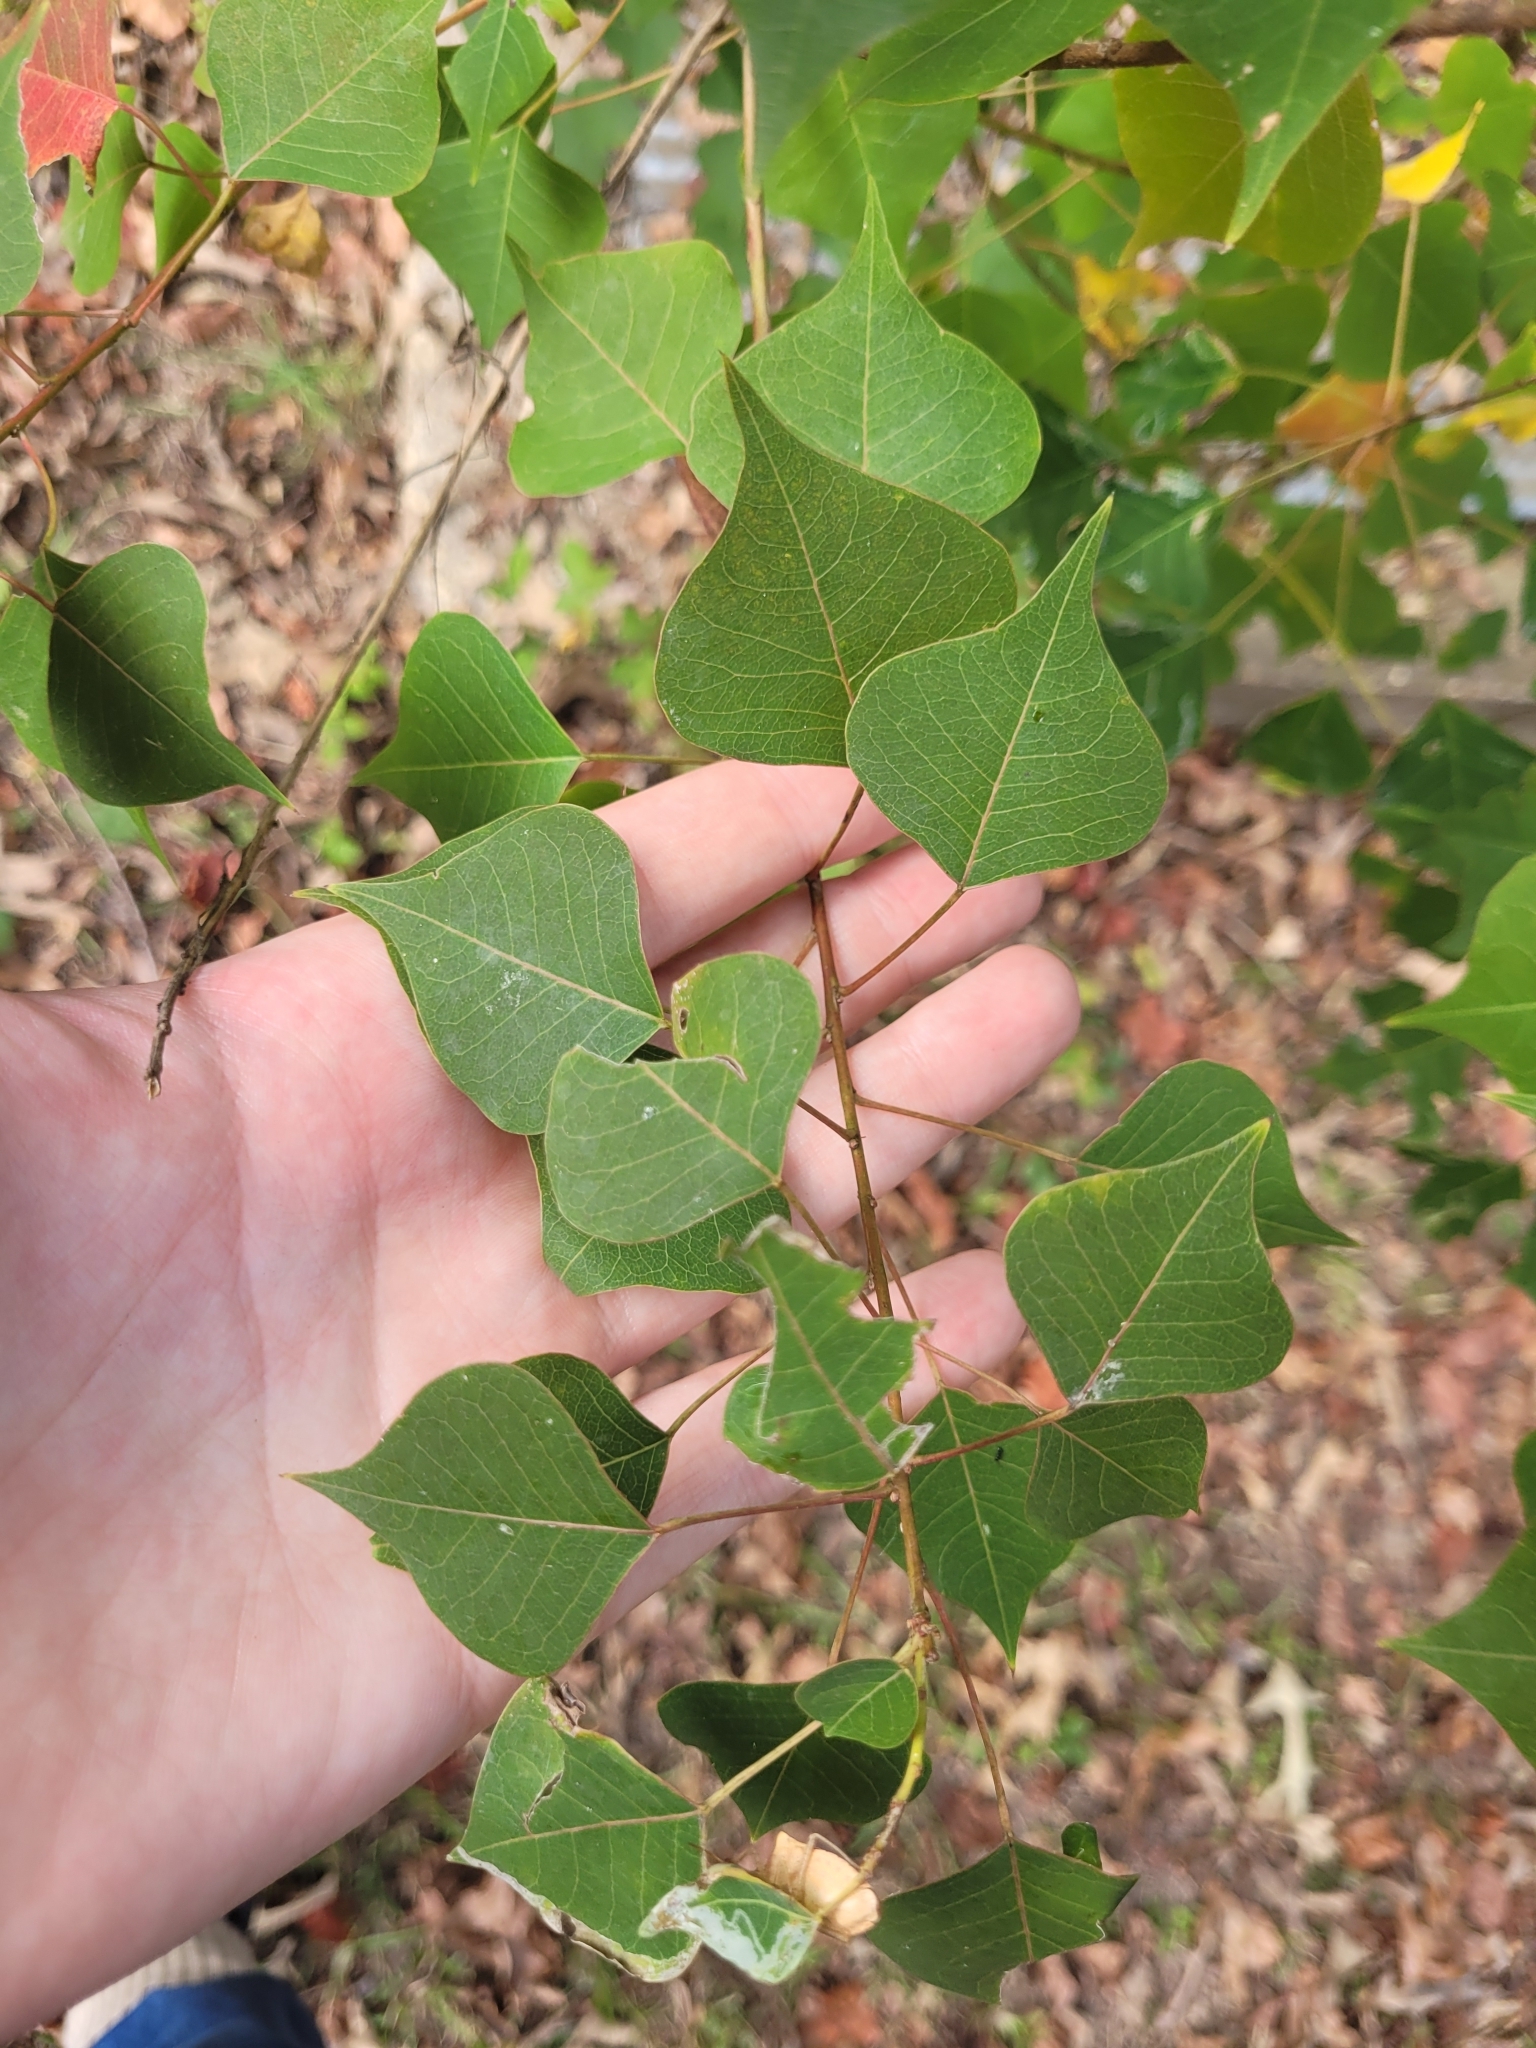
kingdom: Plantae
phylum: Tracheophyta
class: Magnoliopsida
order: Malpighiales
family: Euphorbiaceae
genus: Triadica
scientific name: Triadica sebifera
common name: Chinese tallow
